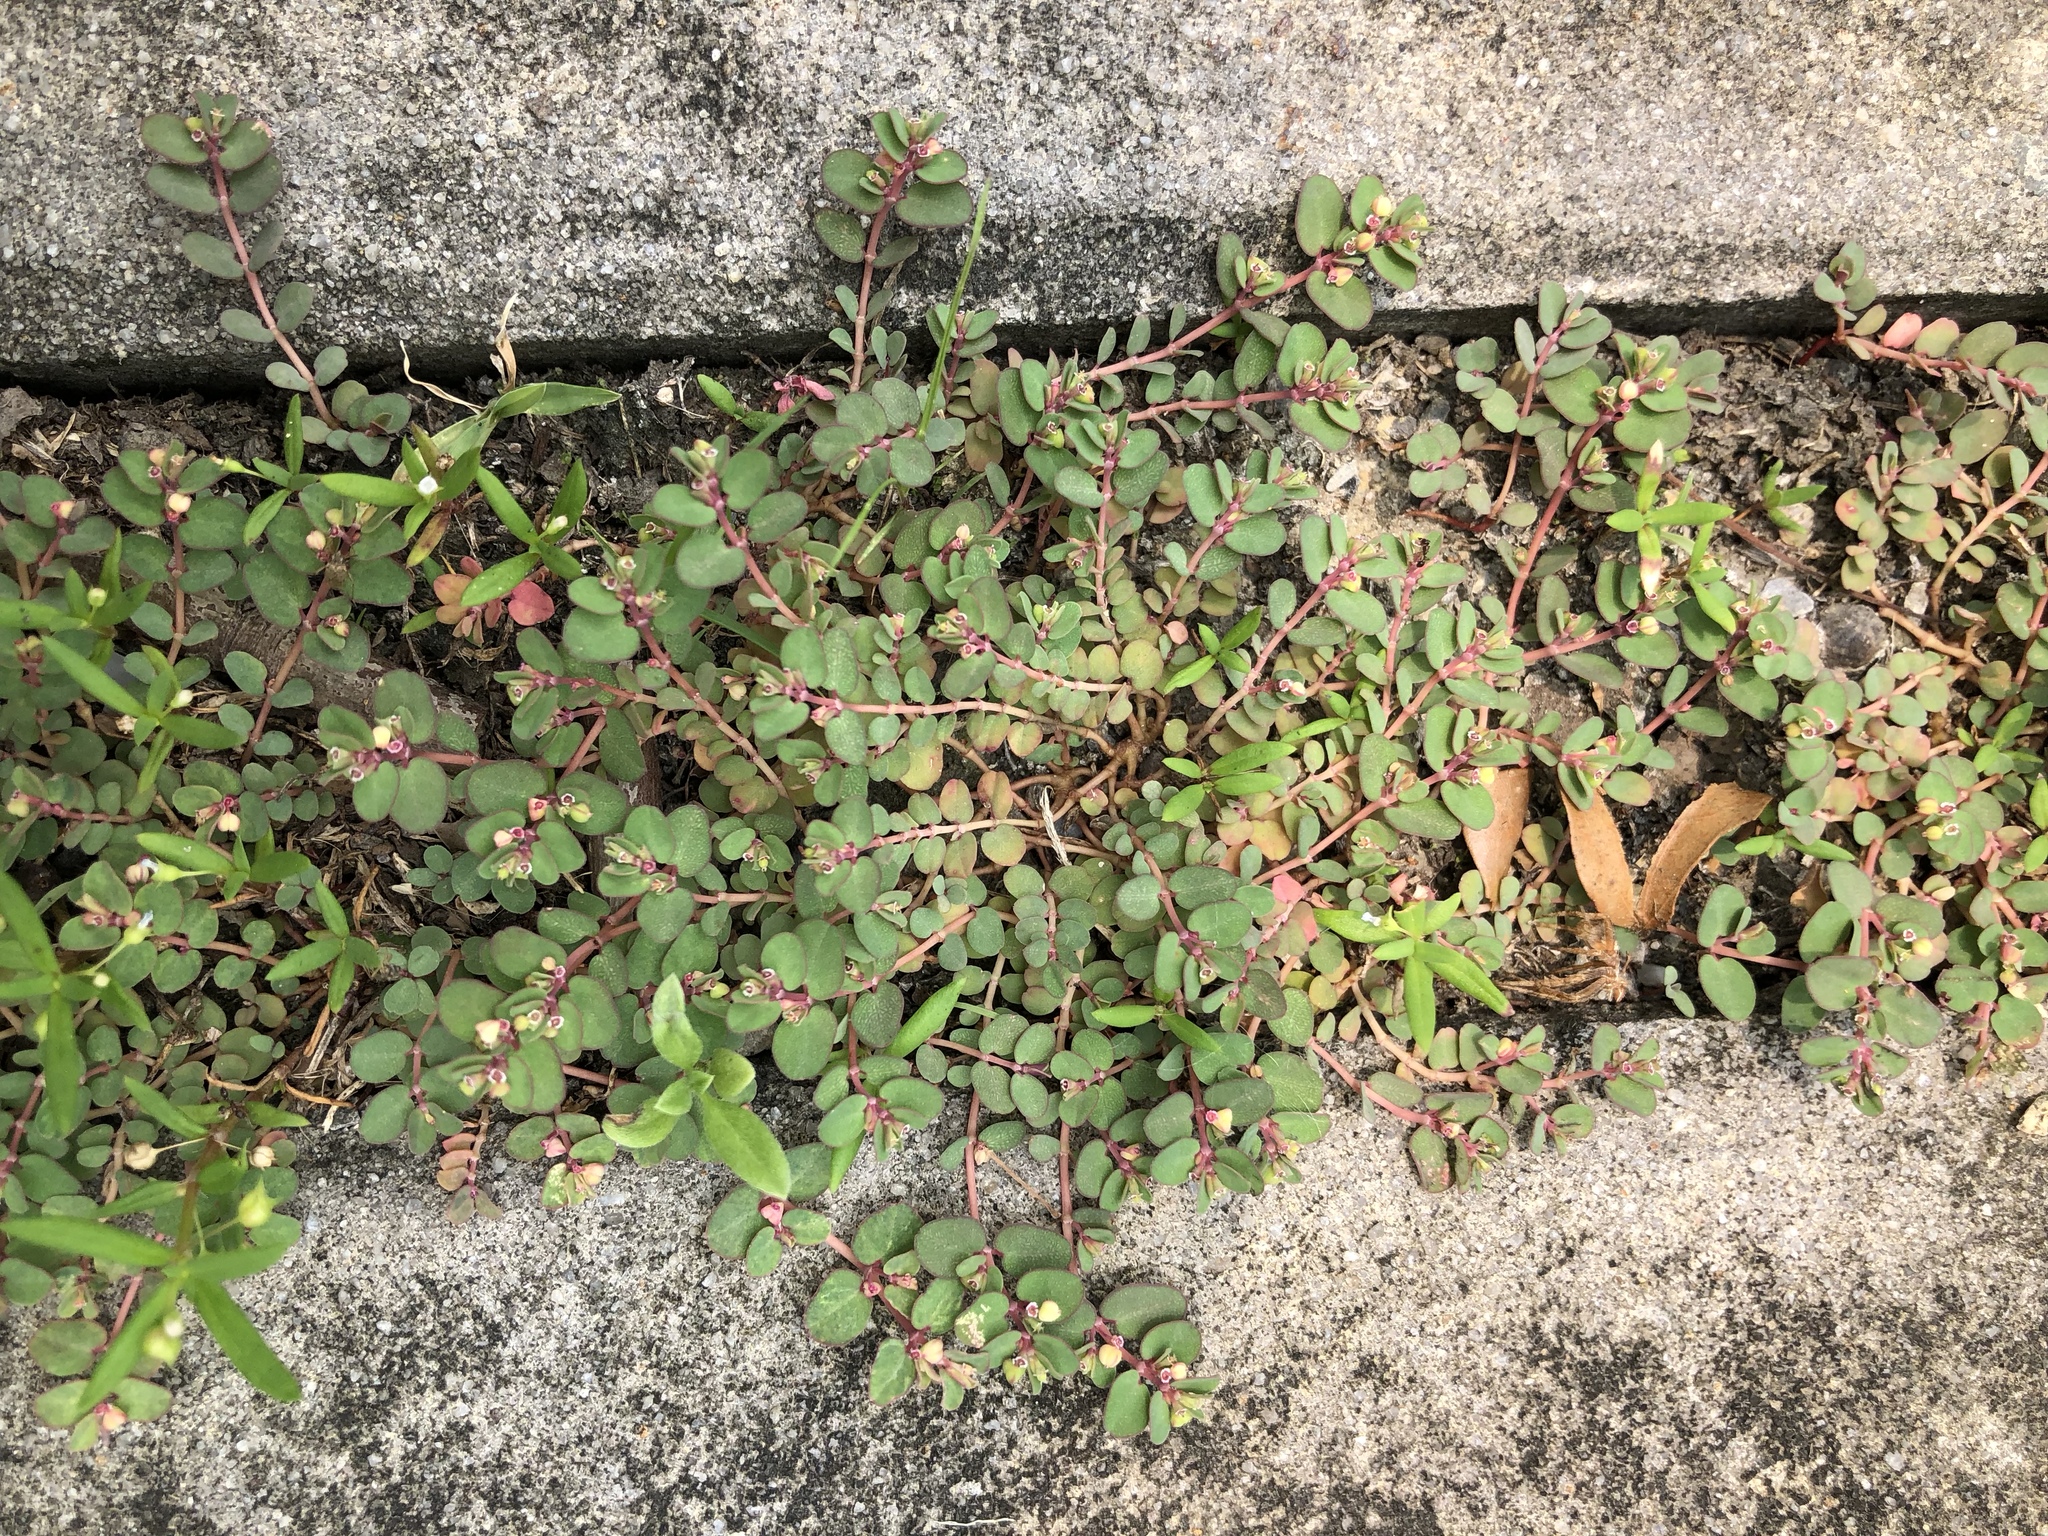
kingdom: Plantae
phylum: Tracheophyta
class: Magnoliopsida
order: Malpighiales
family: Euphorbiaceae
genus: Euphorbia
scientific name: Euphorbia serpens
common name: Matted sandmat
